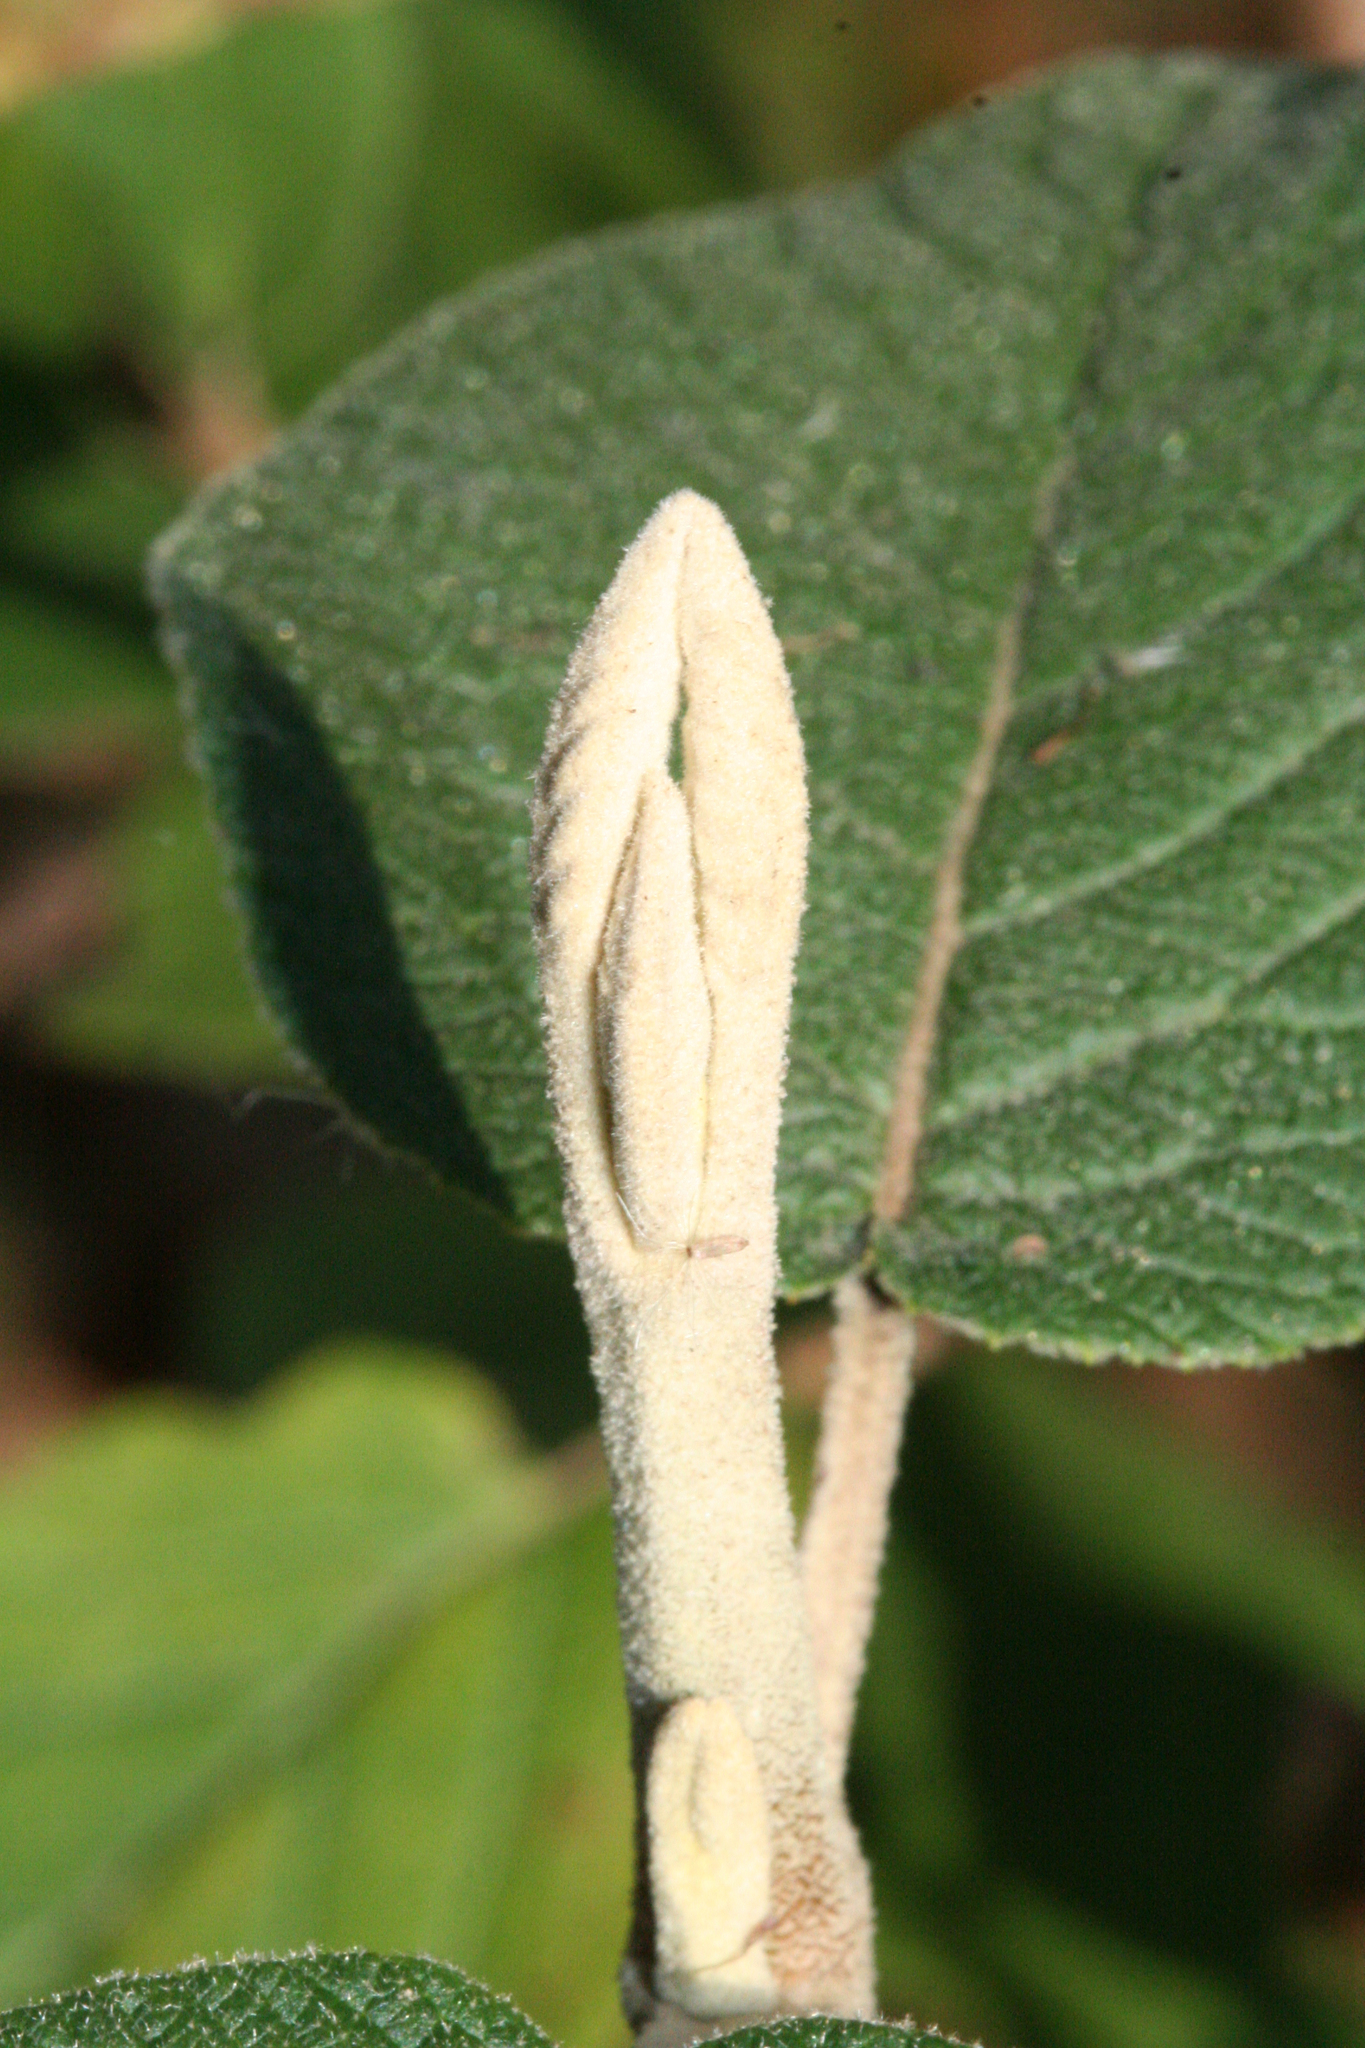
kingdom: Plantae
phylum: Tracheophyta
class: Magnoliopsida
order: Dipsacales
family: Viburnaceae
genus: Viburnum
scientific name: Viburnum lantana
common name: Wayfaring tree
